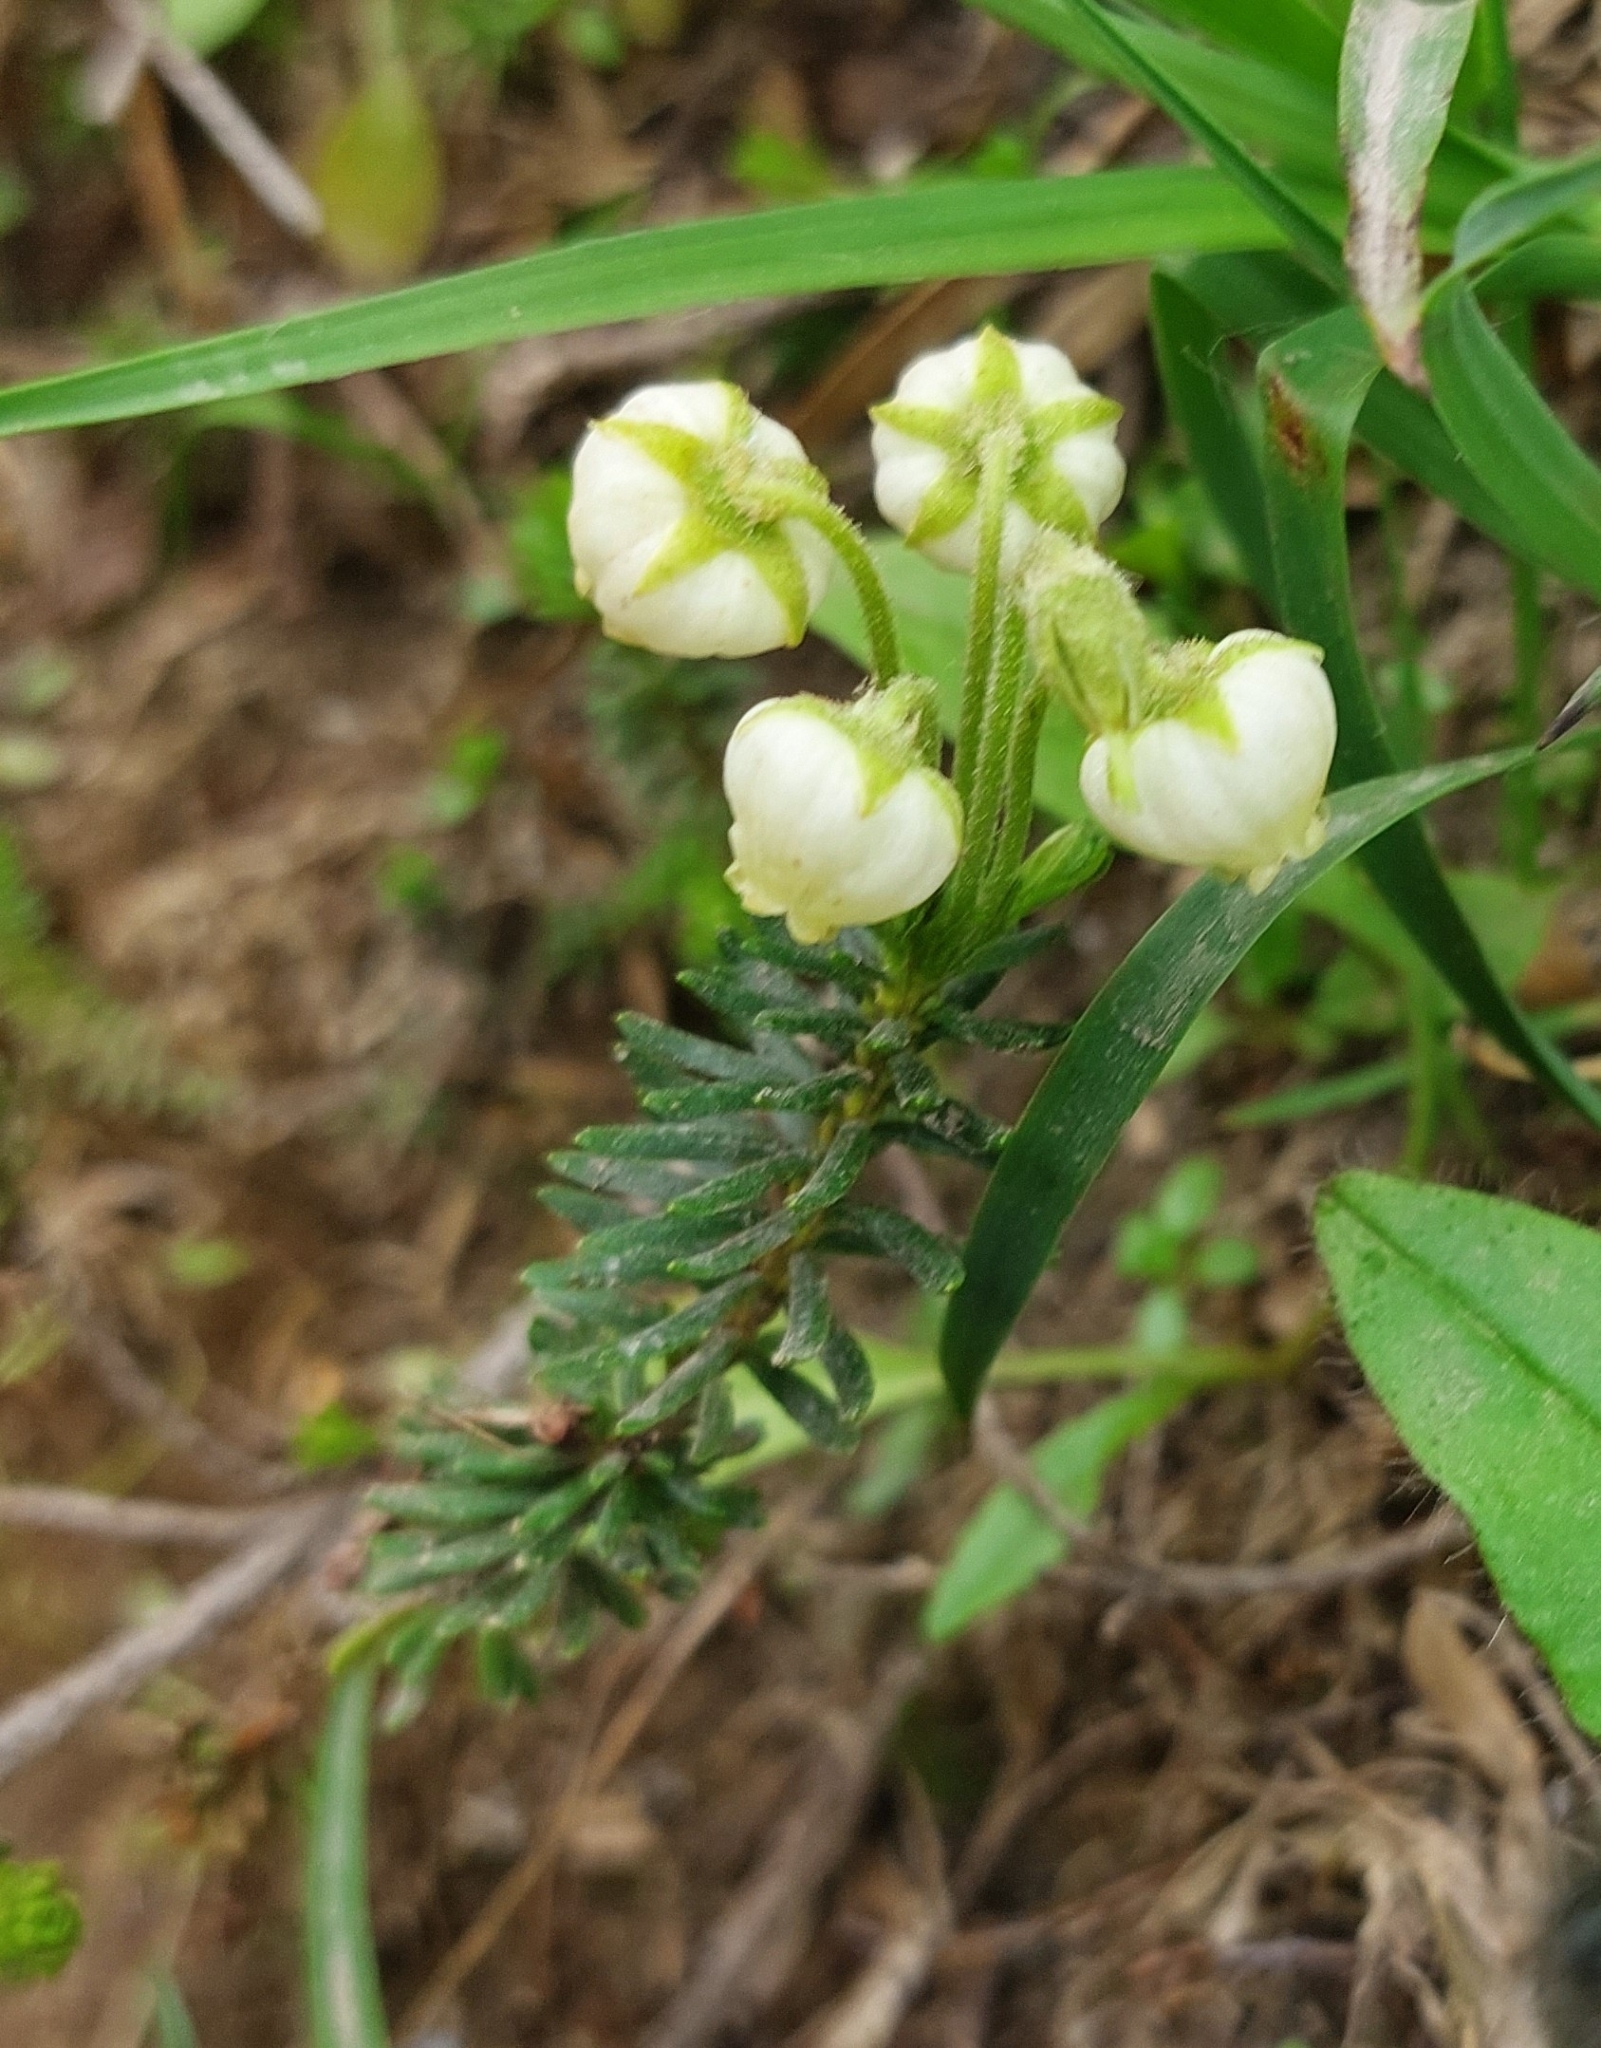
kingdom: Plantae
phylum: Tracheophyta
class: Magnoliopsida
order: Ericales
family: Ericaceae
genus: Phyllodoce
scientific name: Phyllodoce aleutica
